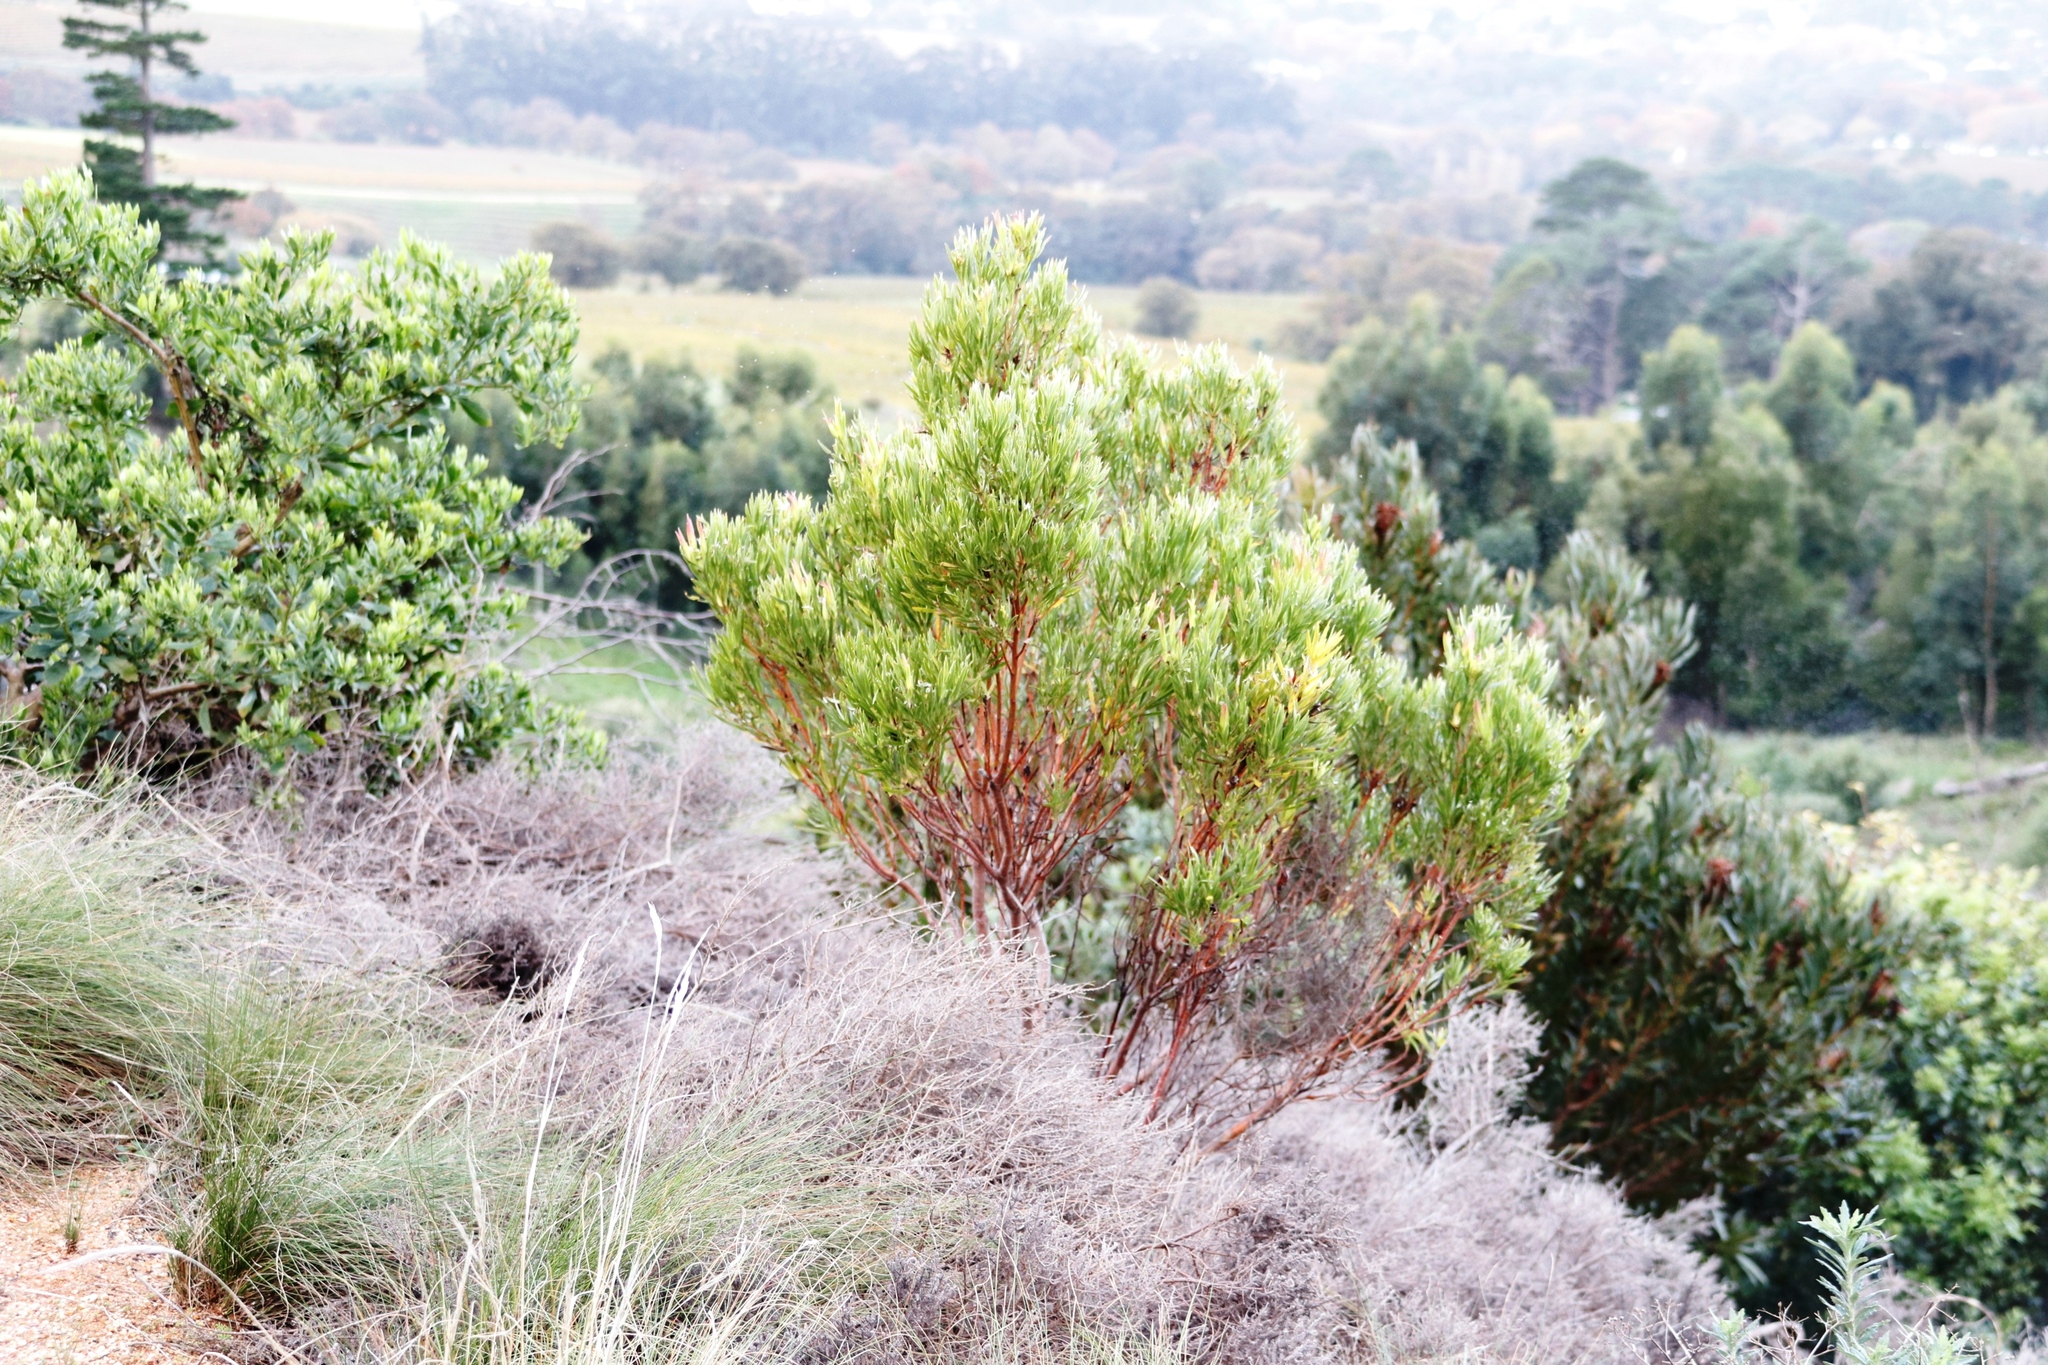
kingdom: Plantae
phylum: Tracheophyta
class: Magnoliopsida
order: Proteales
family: Proteaceae
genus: Leucadendron
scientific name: Leucadendron xanthoconus
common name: Sickle-leaf conebush
